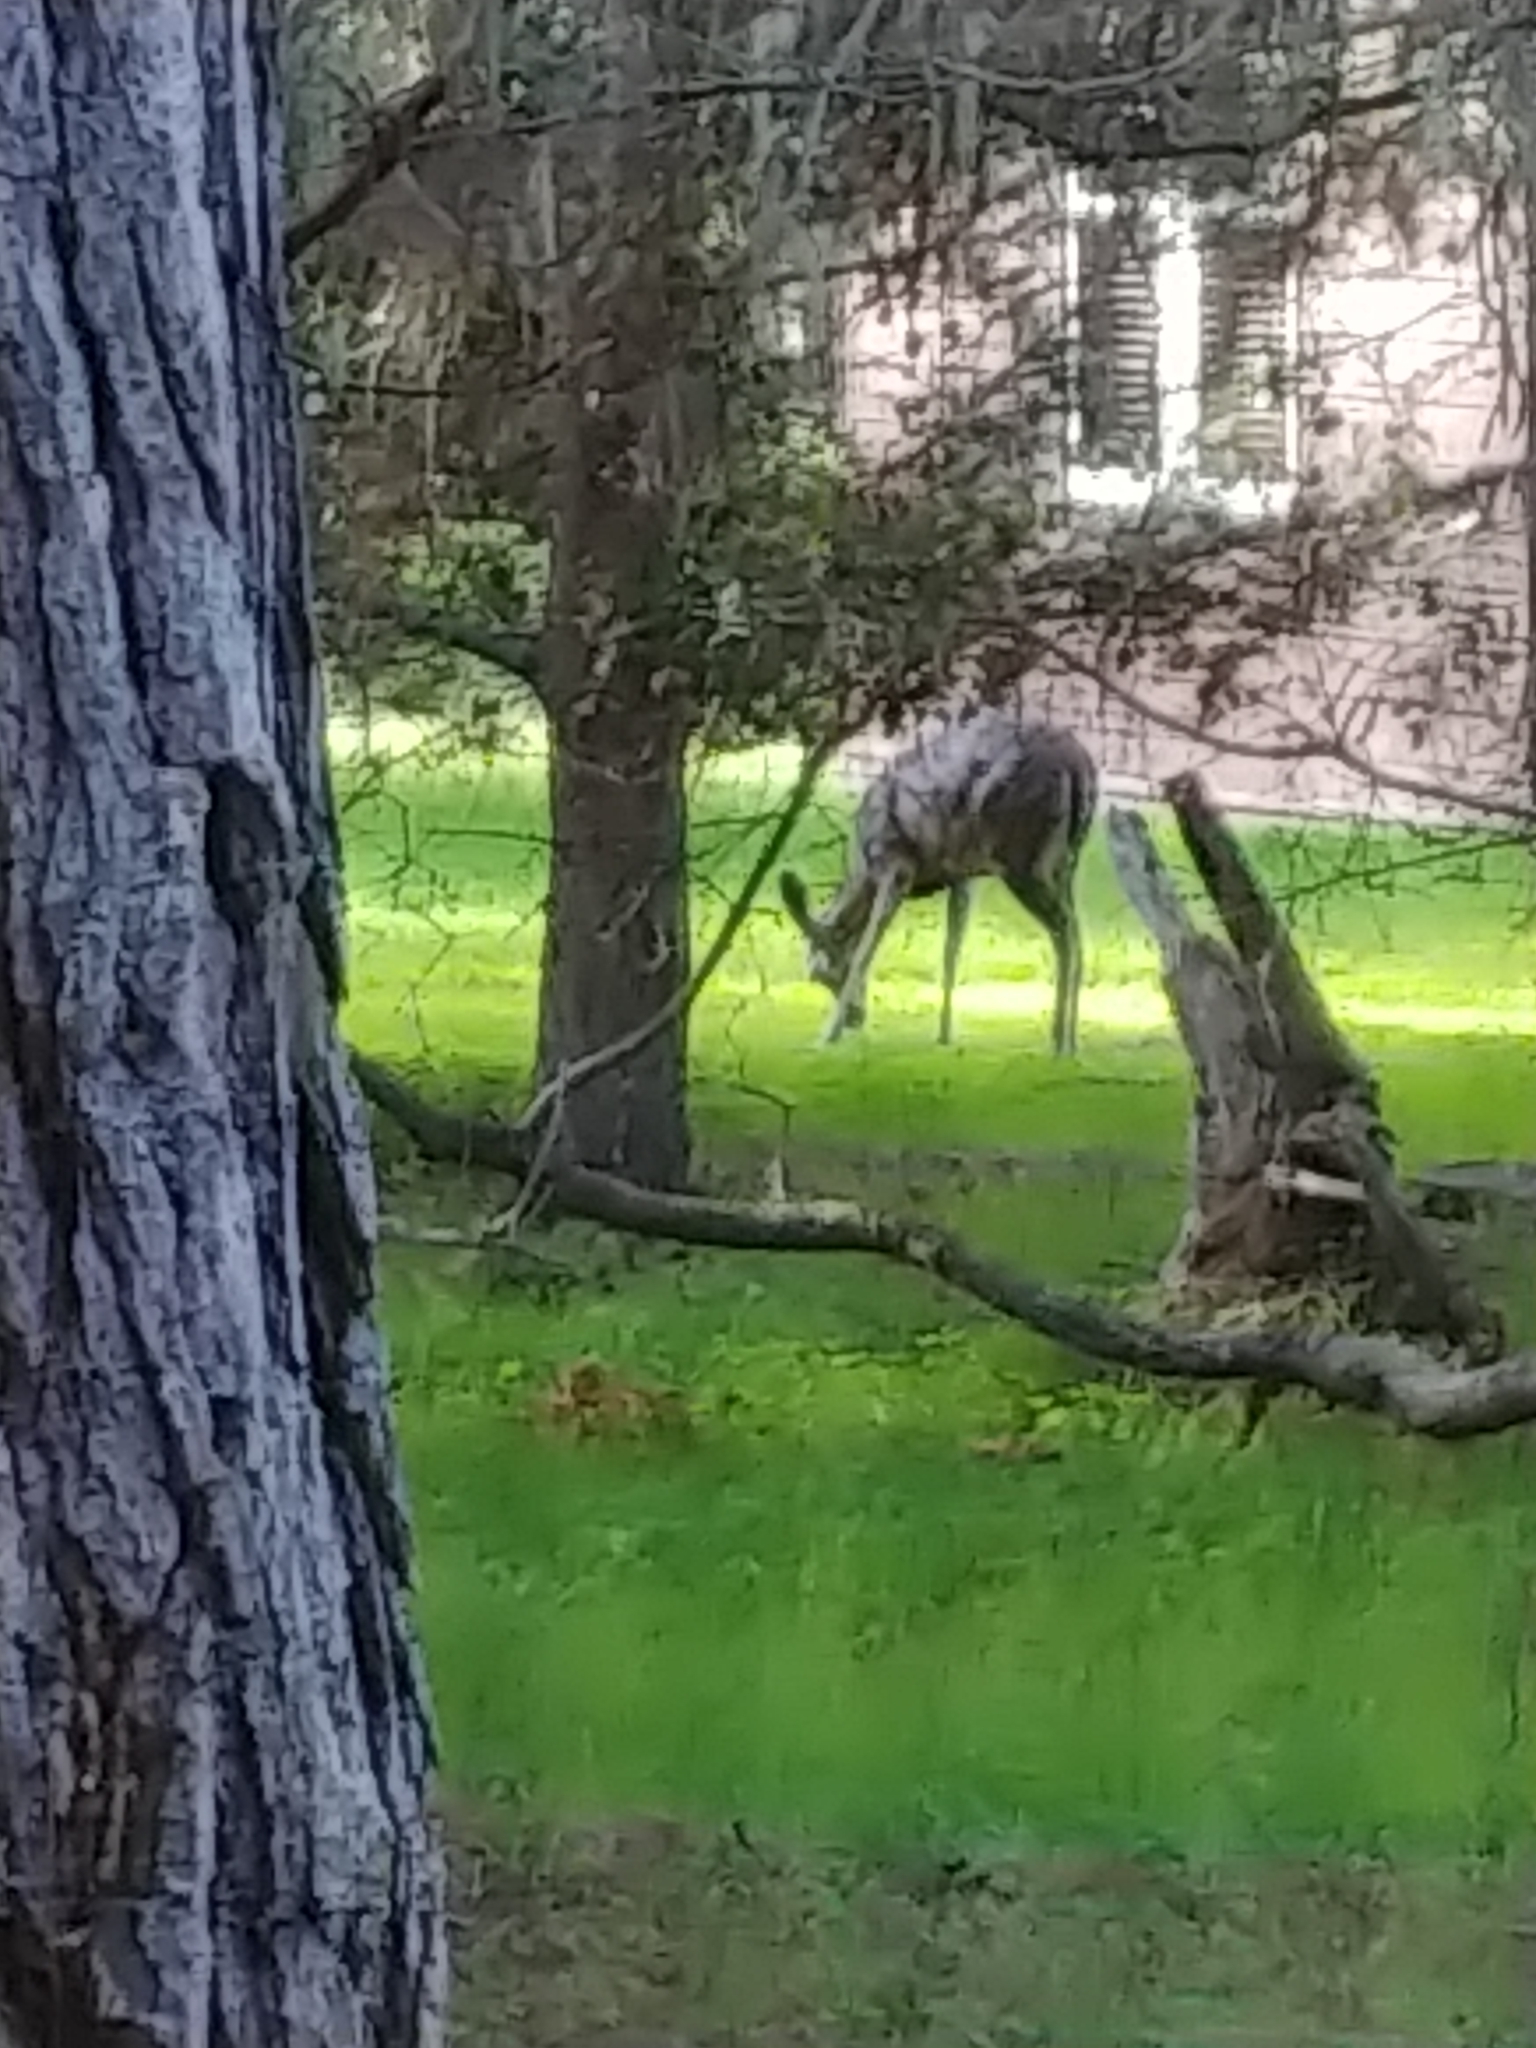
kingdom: Animalia
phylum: Chordata
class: Mammalia
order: Artiodactyla
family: Cervidae
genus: Odocoileus
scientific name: Odocoileus hemionus
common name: Mule deer
